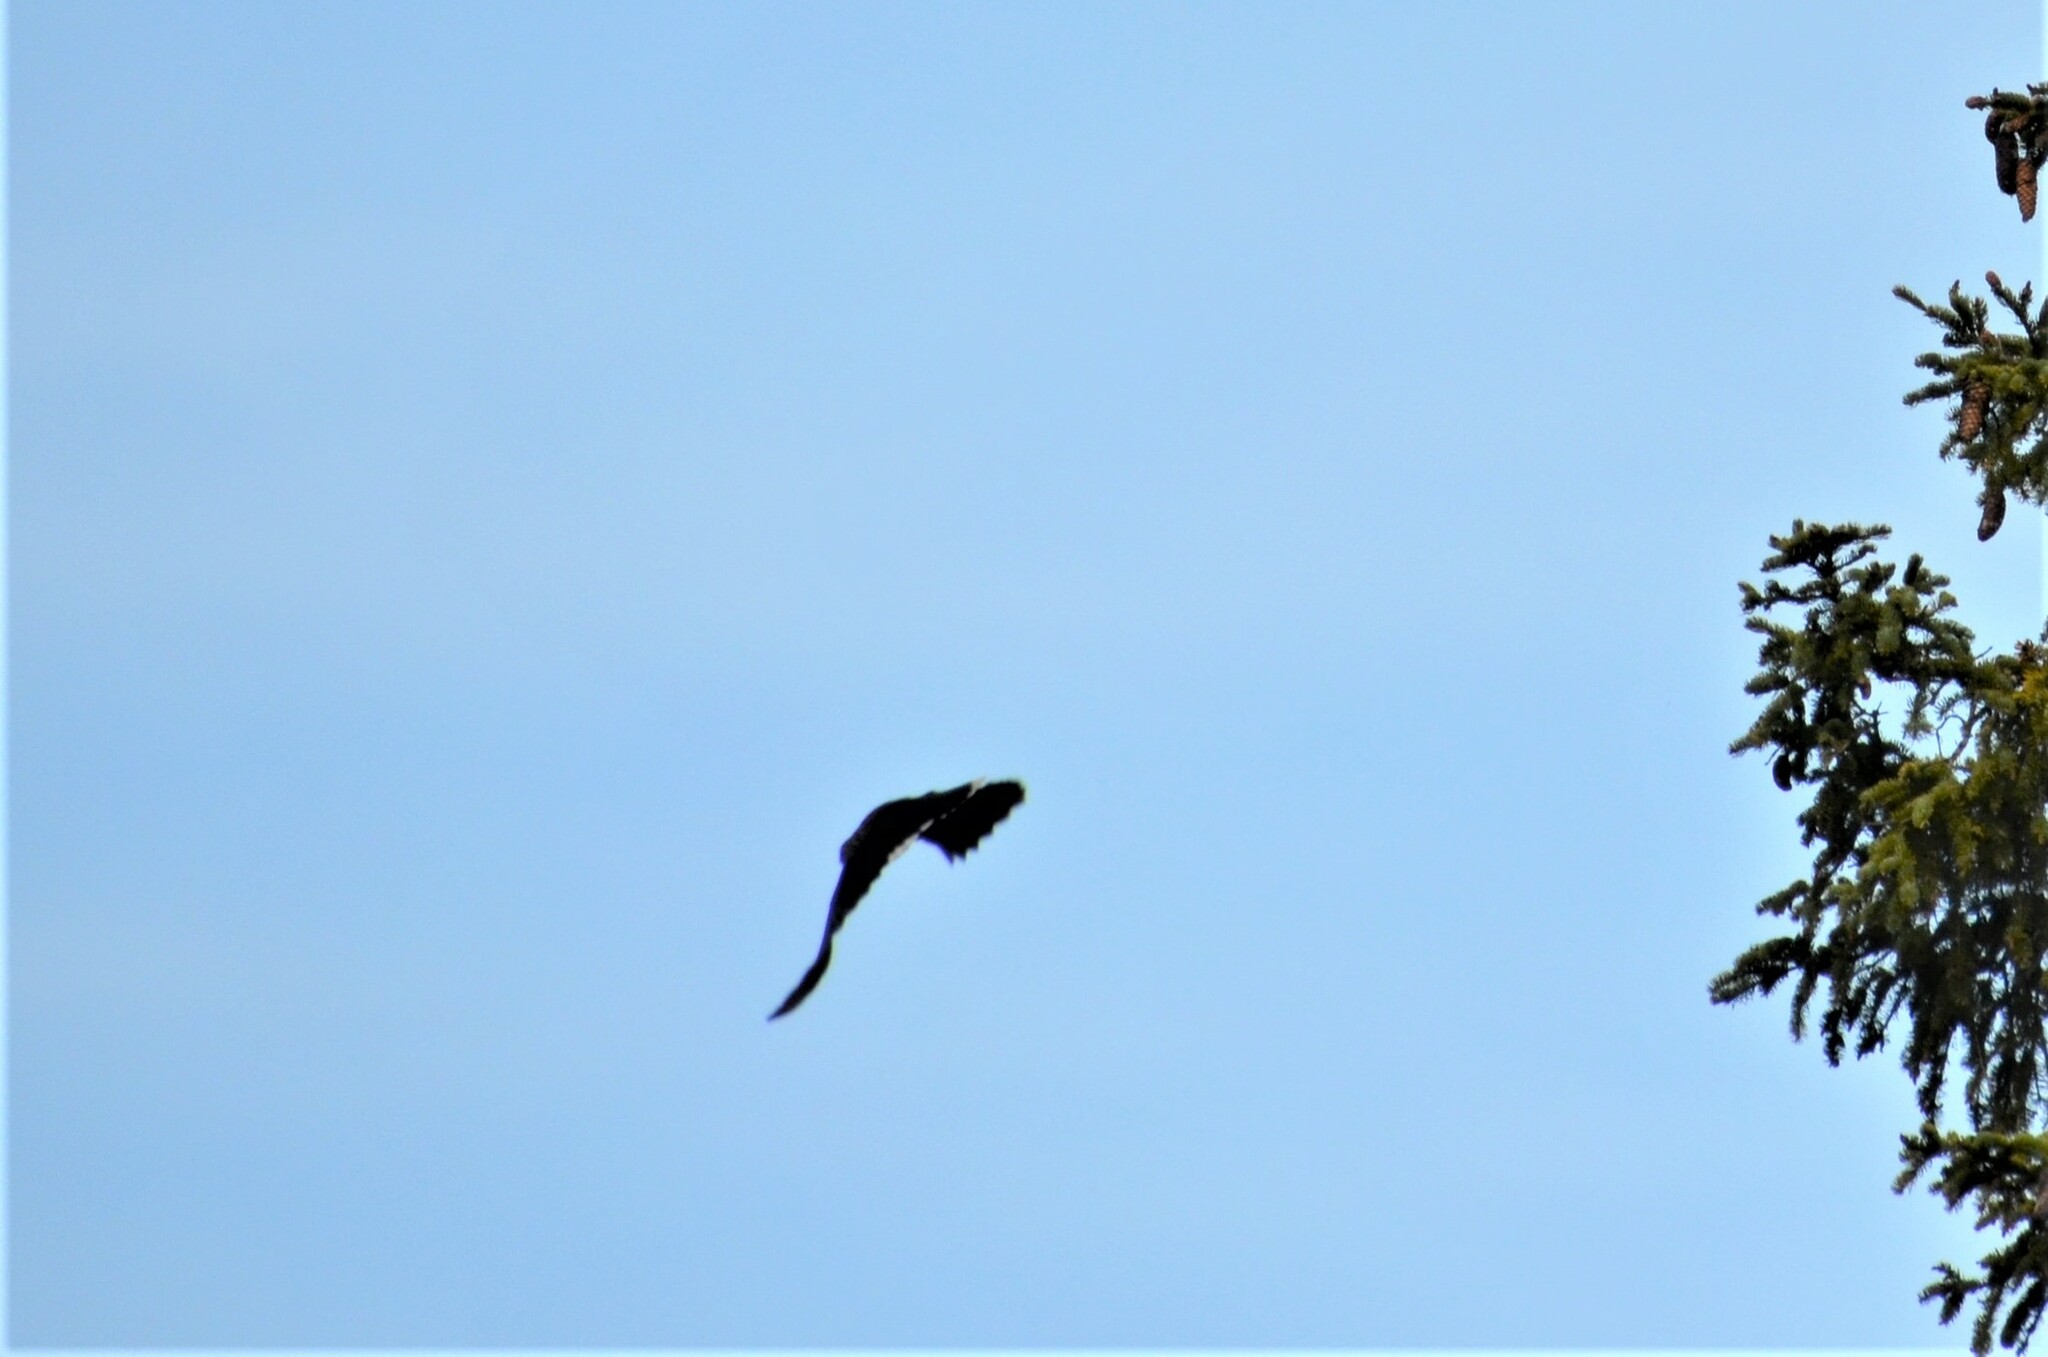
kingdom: Animalia
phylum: Chordata
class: Aves
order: Passeriformes
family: Corvidae
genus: Nucifraga
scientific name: Nucifraga caryocatactes
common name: Spotted nutcracker
